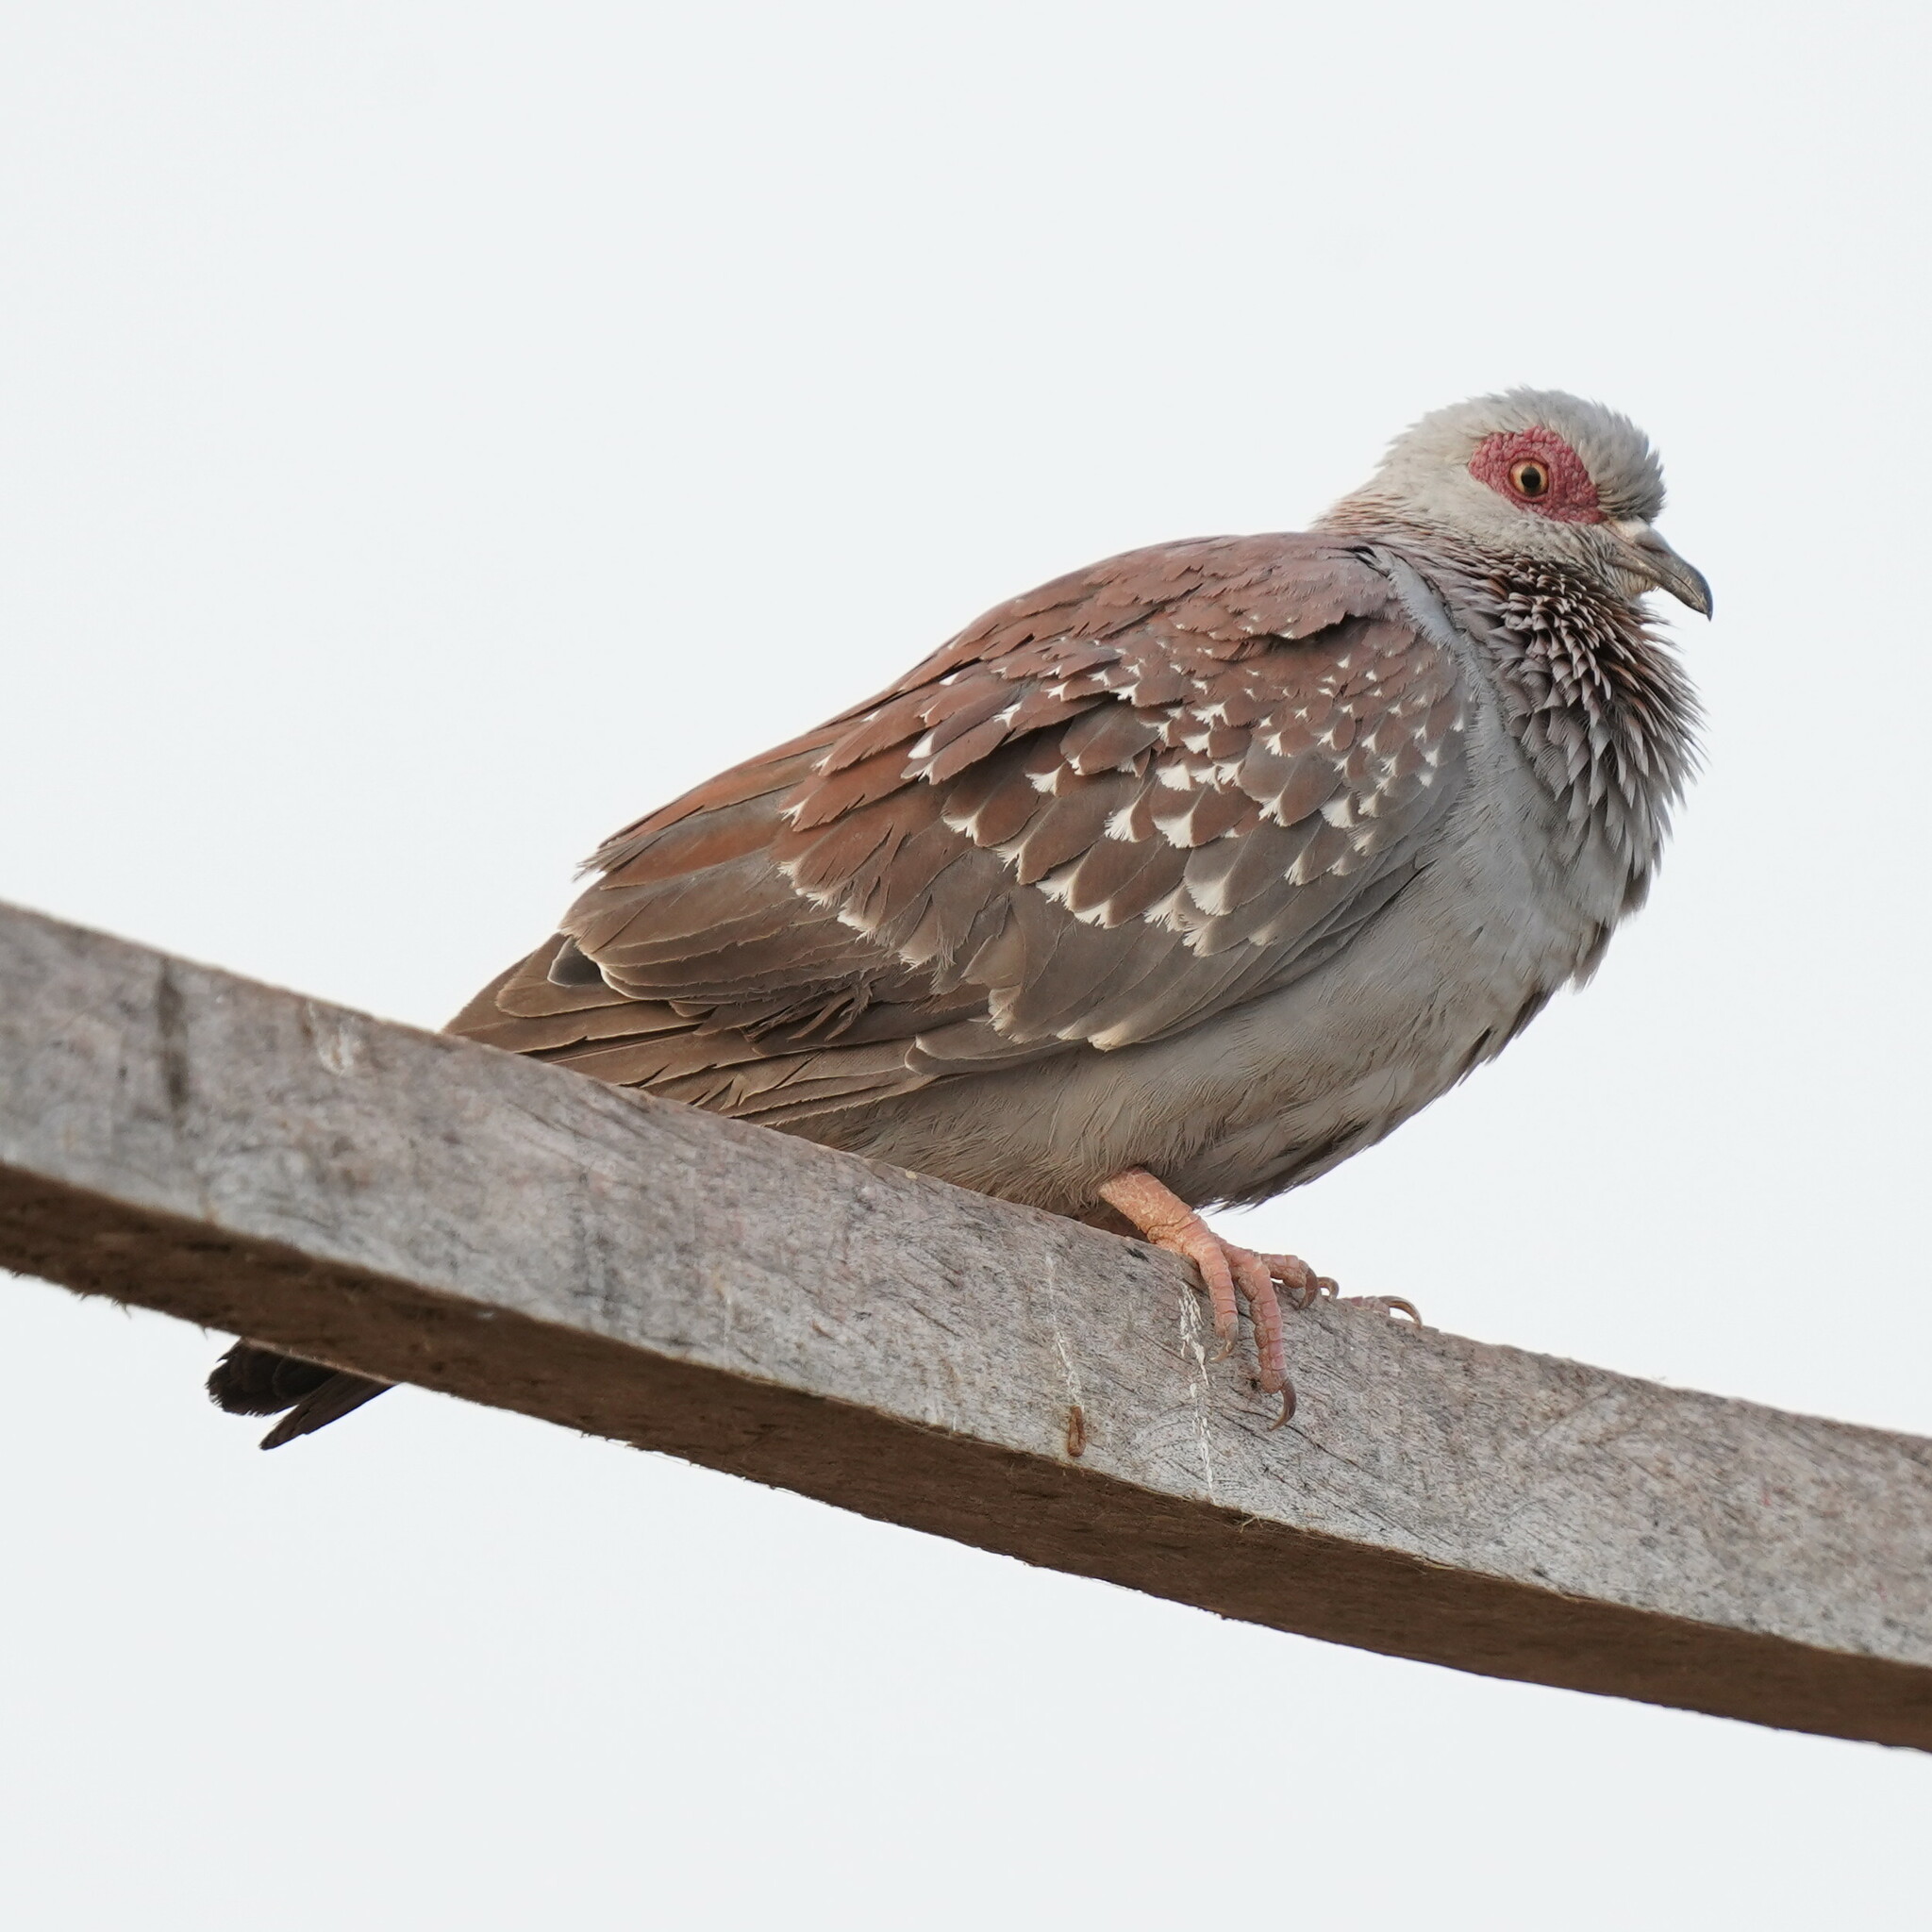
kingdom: Animalia
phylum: Chordata
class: Aves
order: Columbiformes
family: Columbidae
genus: Columba
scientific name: Columba guinea
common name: Speckled pigeon
